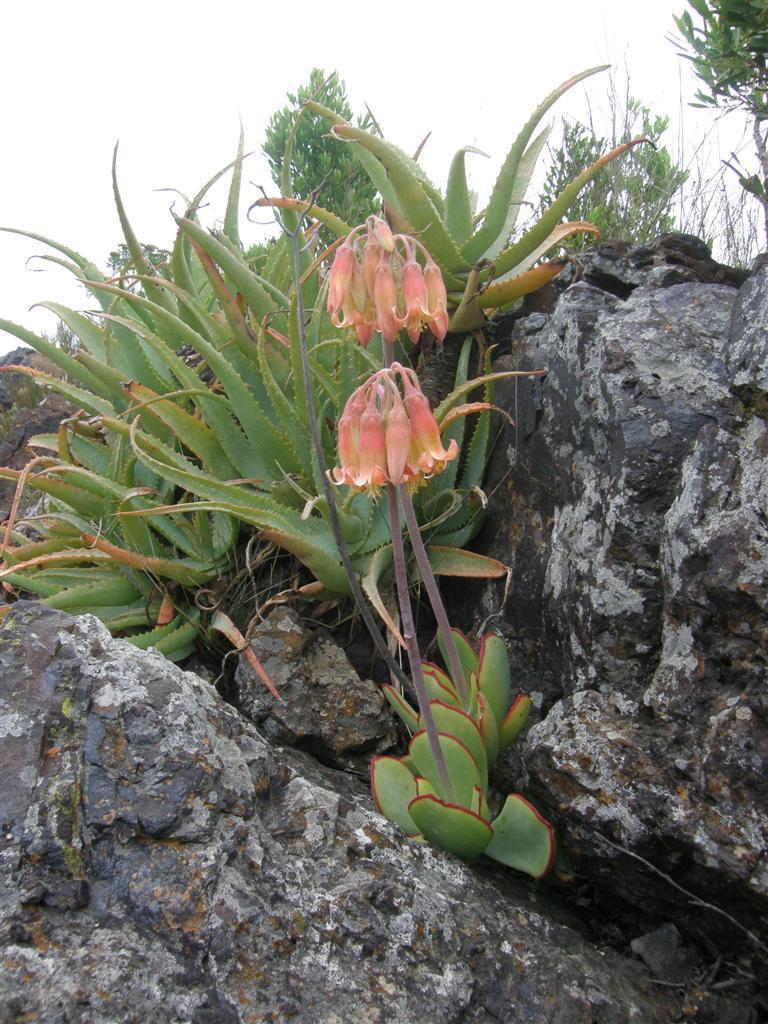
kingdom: Plantae
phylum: Tracheophyta
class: Magnoliopsida
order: Saxifragales
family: Crassulaceae
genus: Cotyledon
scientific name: Cotyledon orbiculata
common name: Pig's ear
